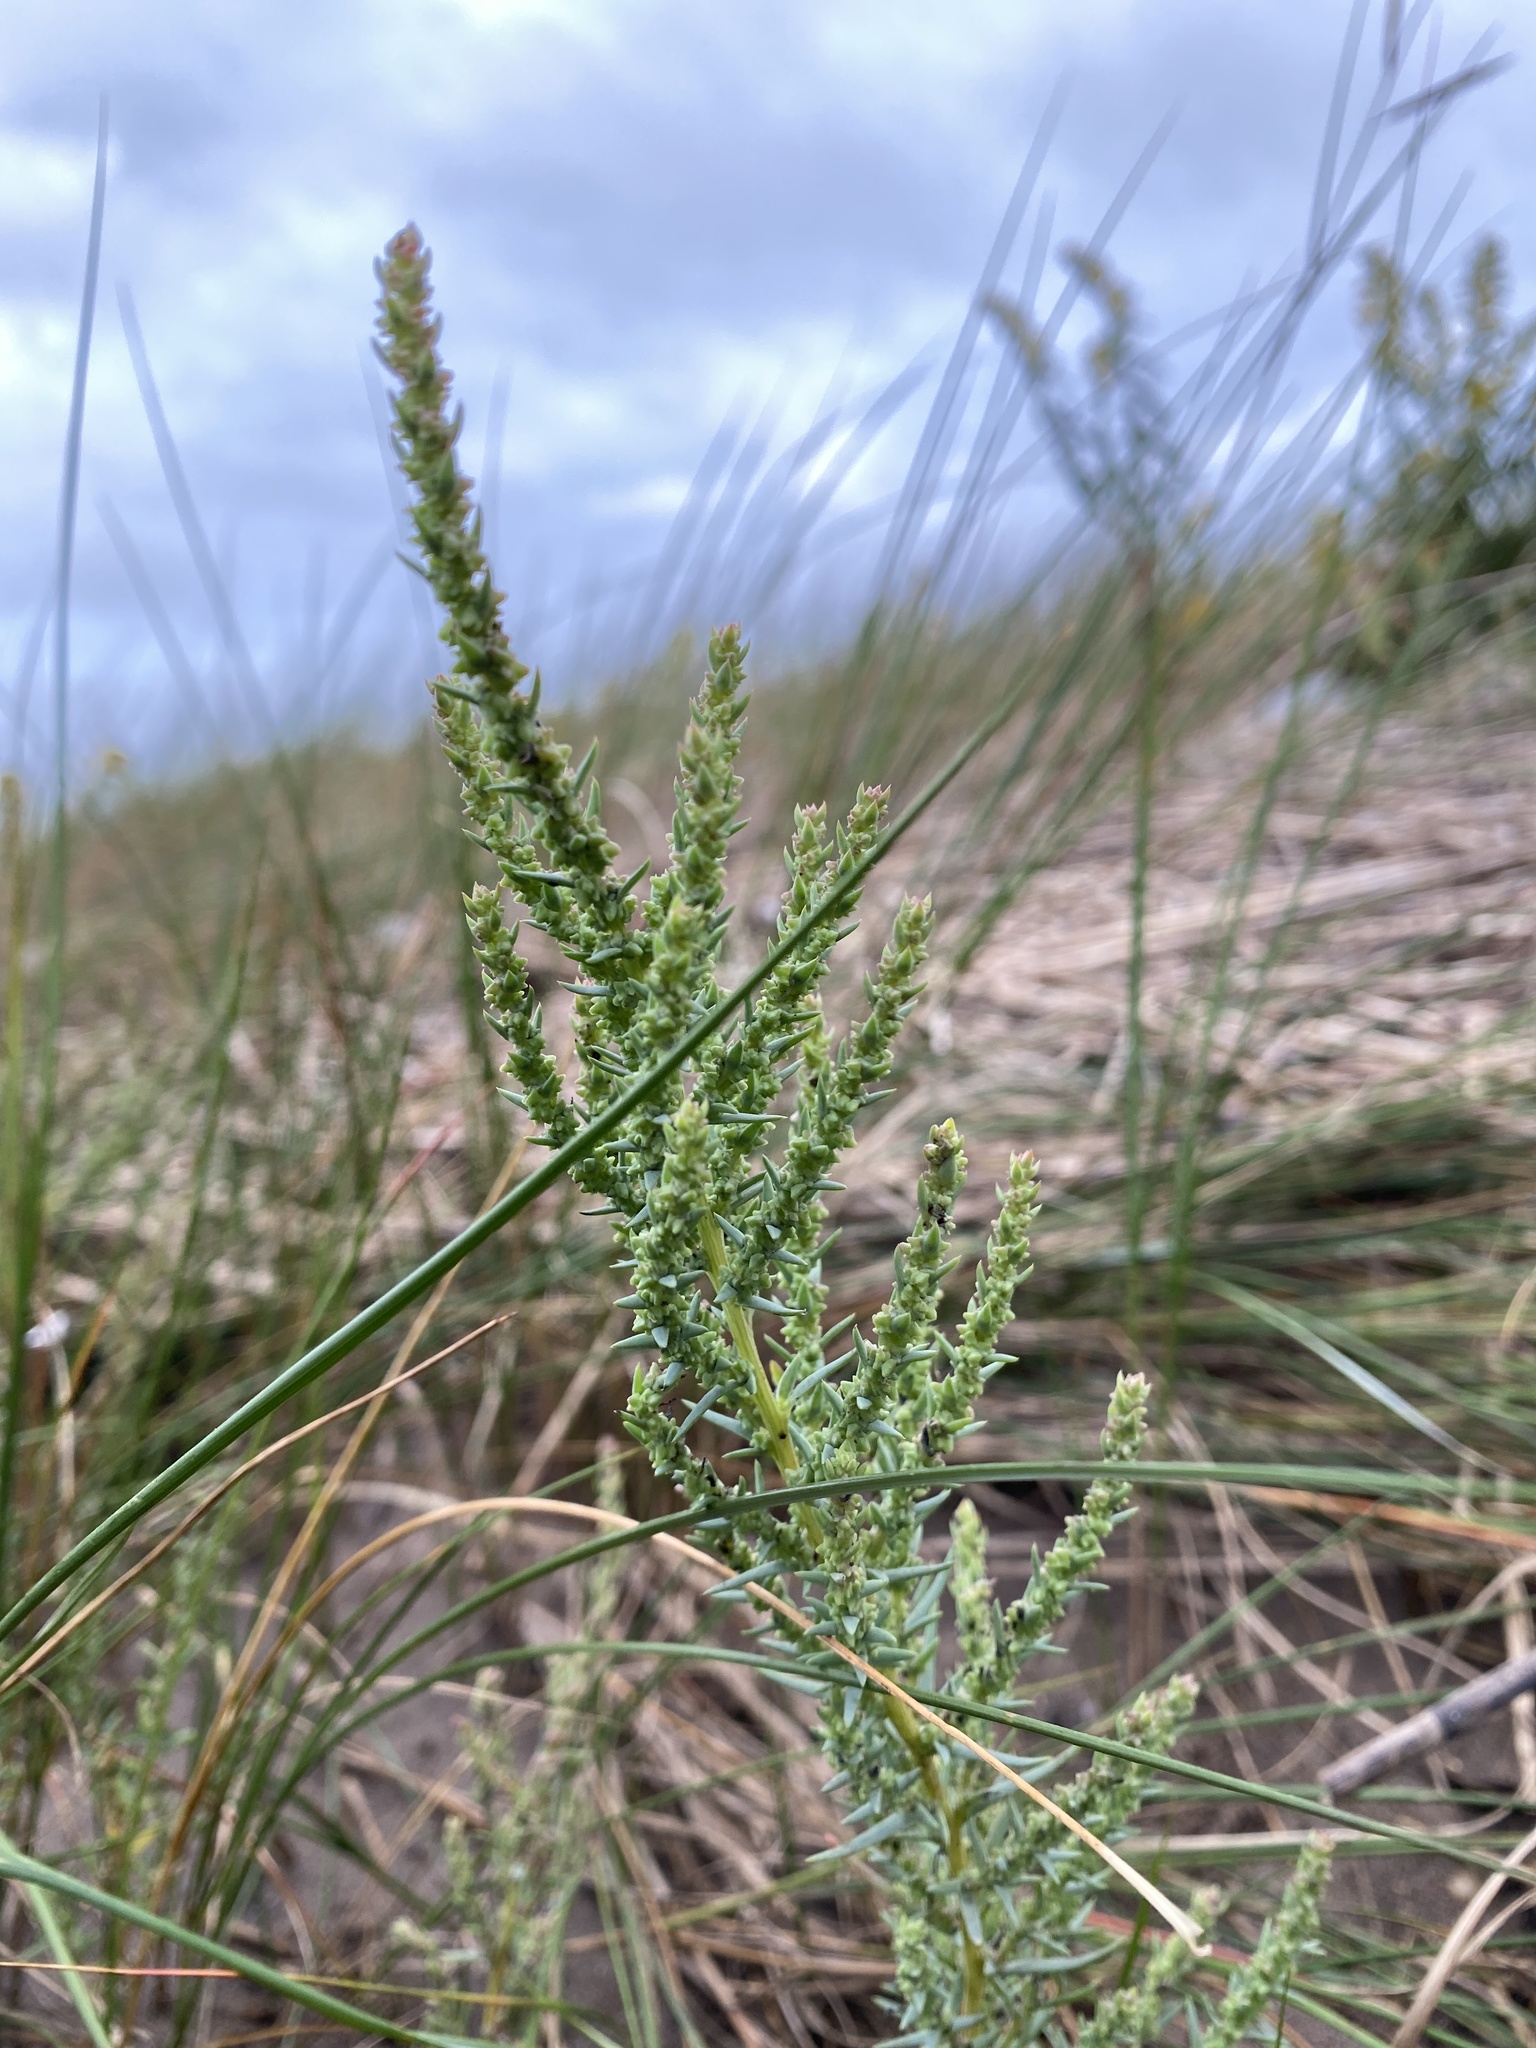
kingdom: Plantae
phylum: Tracheophyta
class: Magnoliopsida
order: Caryophyllales
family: Amaranthaceae
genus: Suaeda
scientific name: Suaeda calceoliformis
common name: Pursh's seepweed
